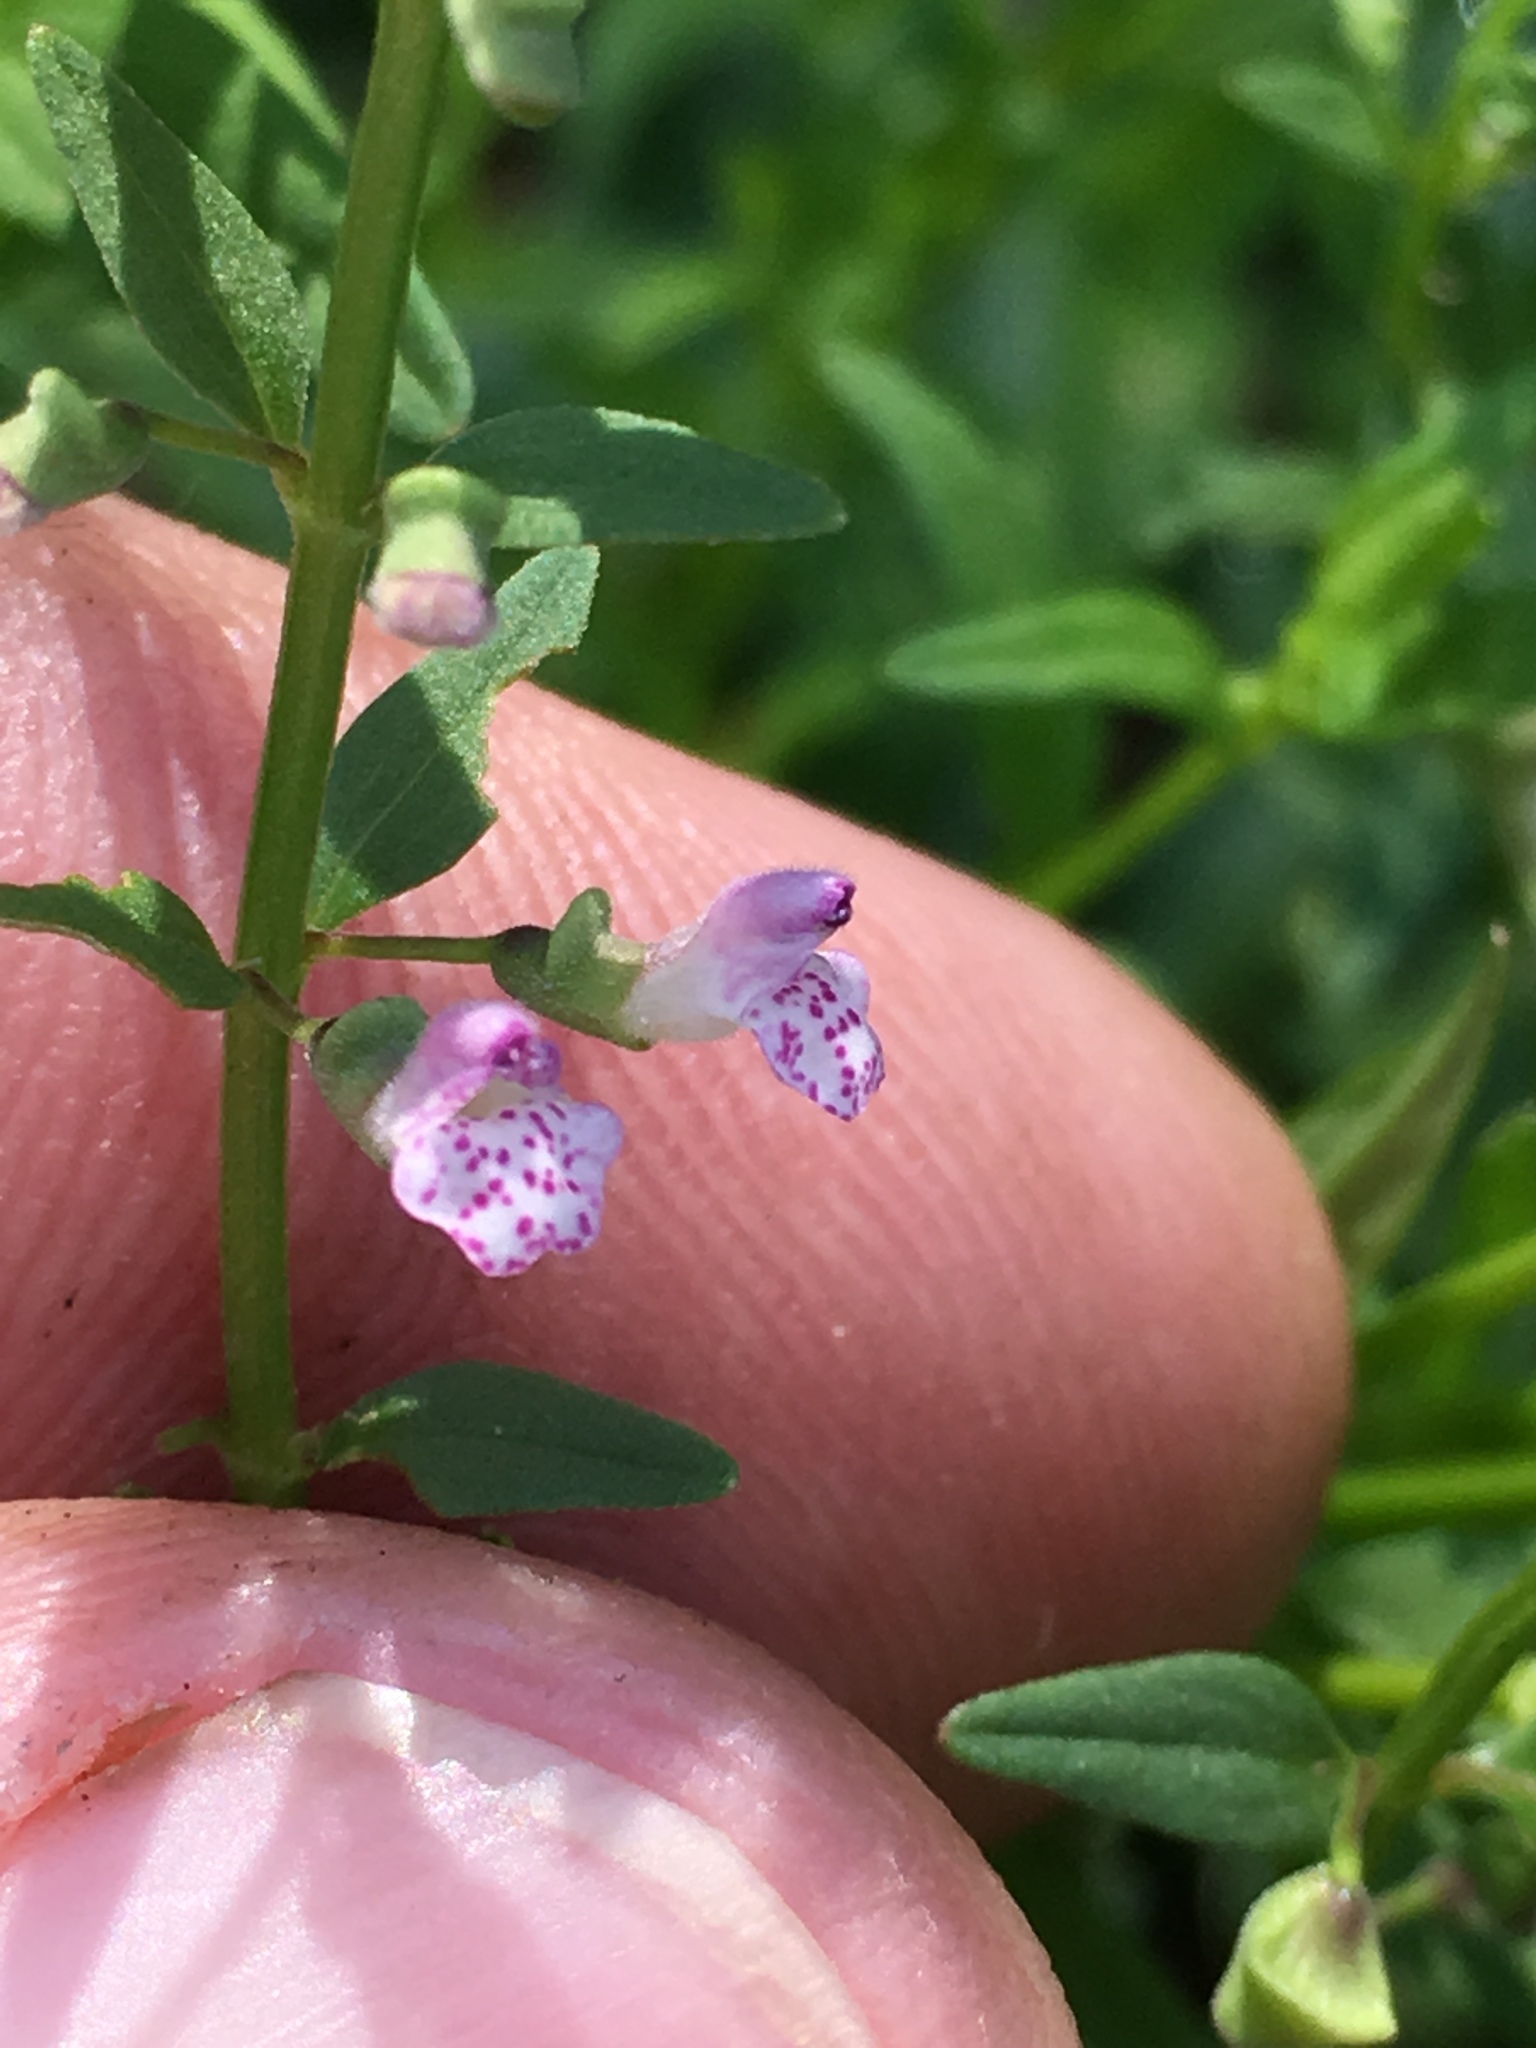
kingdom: Plantae
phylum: Tracheophyta
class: Magnoliopsida
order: Lamiales
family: Lamiaceae
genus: Scutellaria
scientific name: Scutellaria racemosa
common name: South american skullcap
